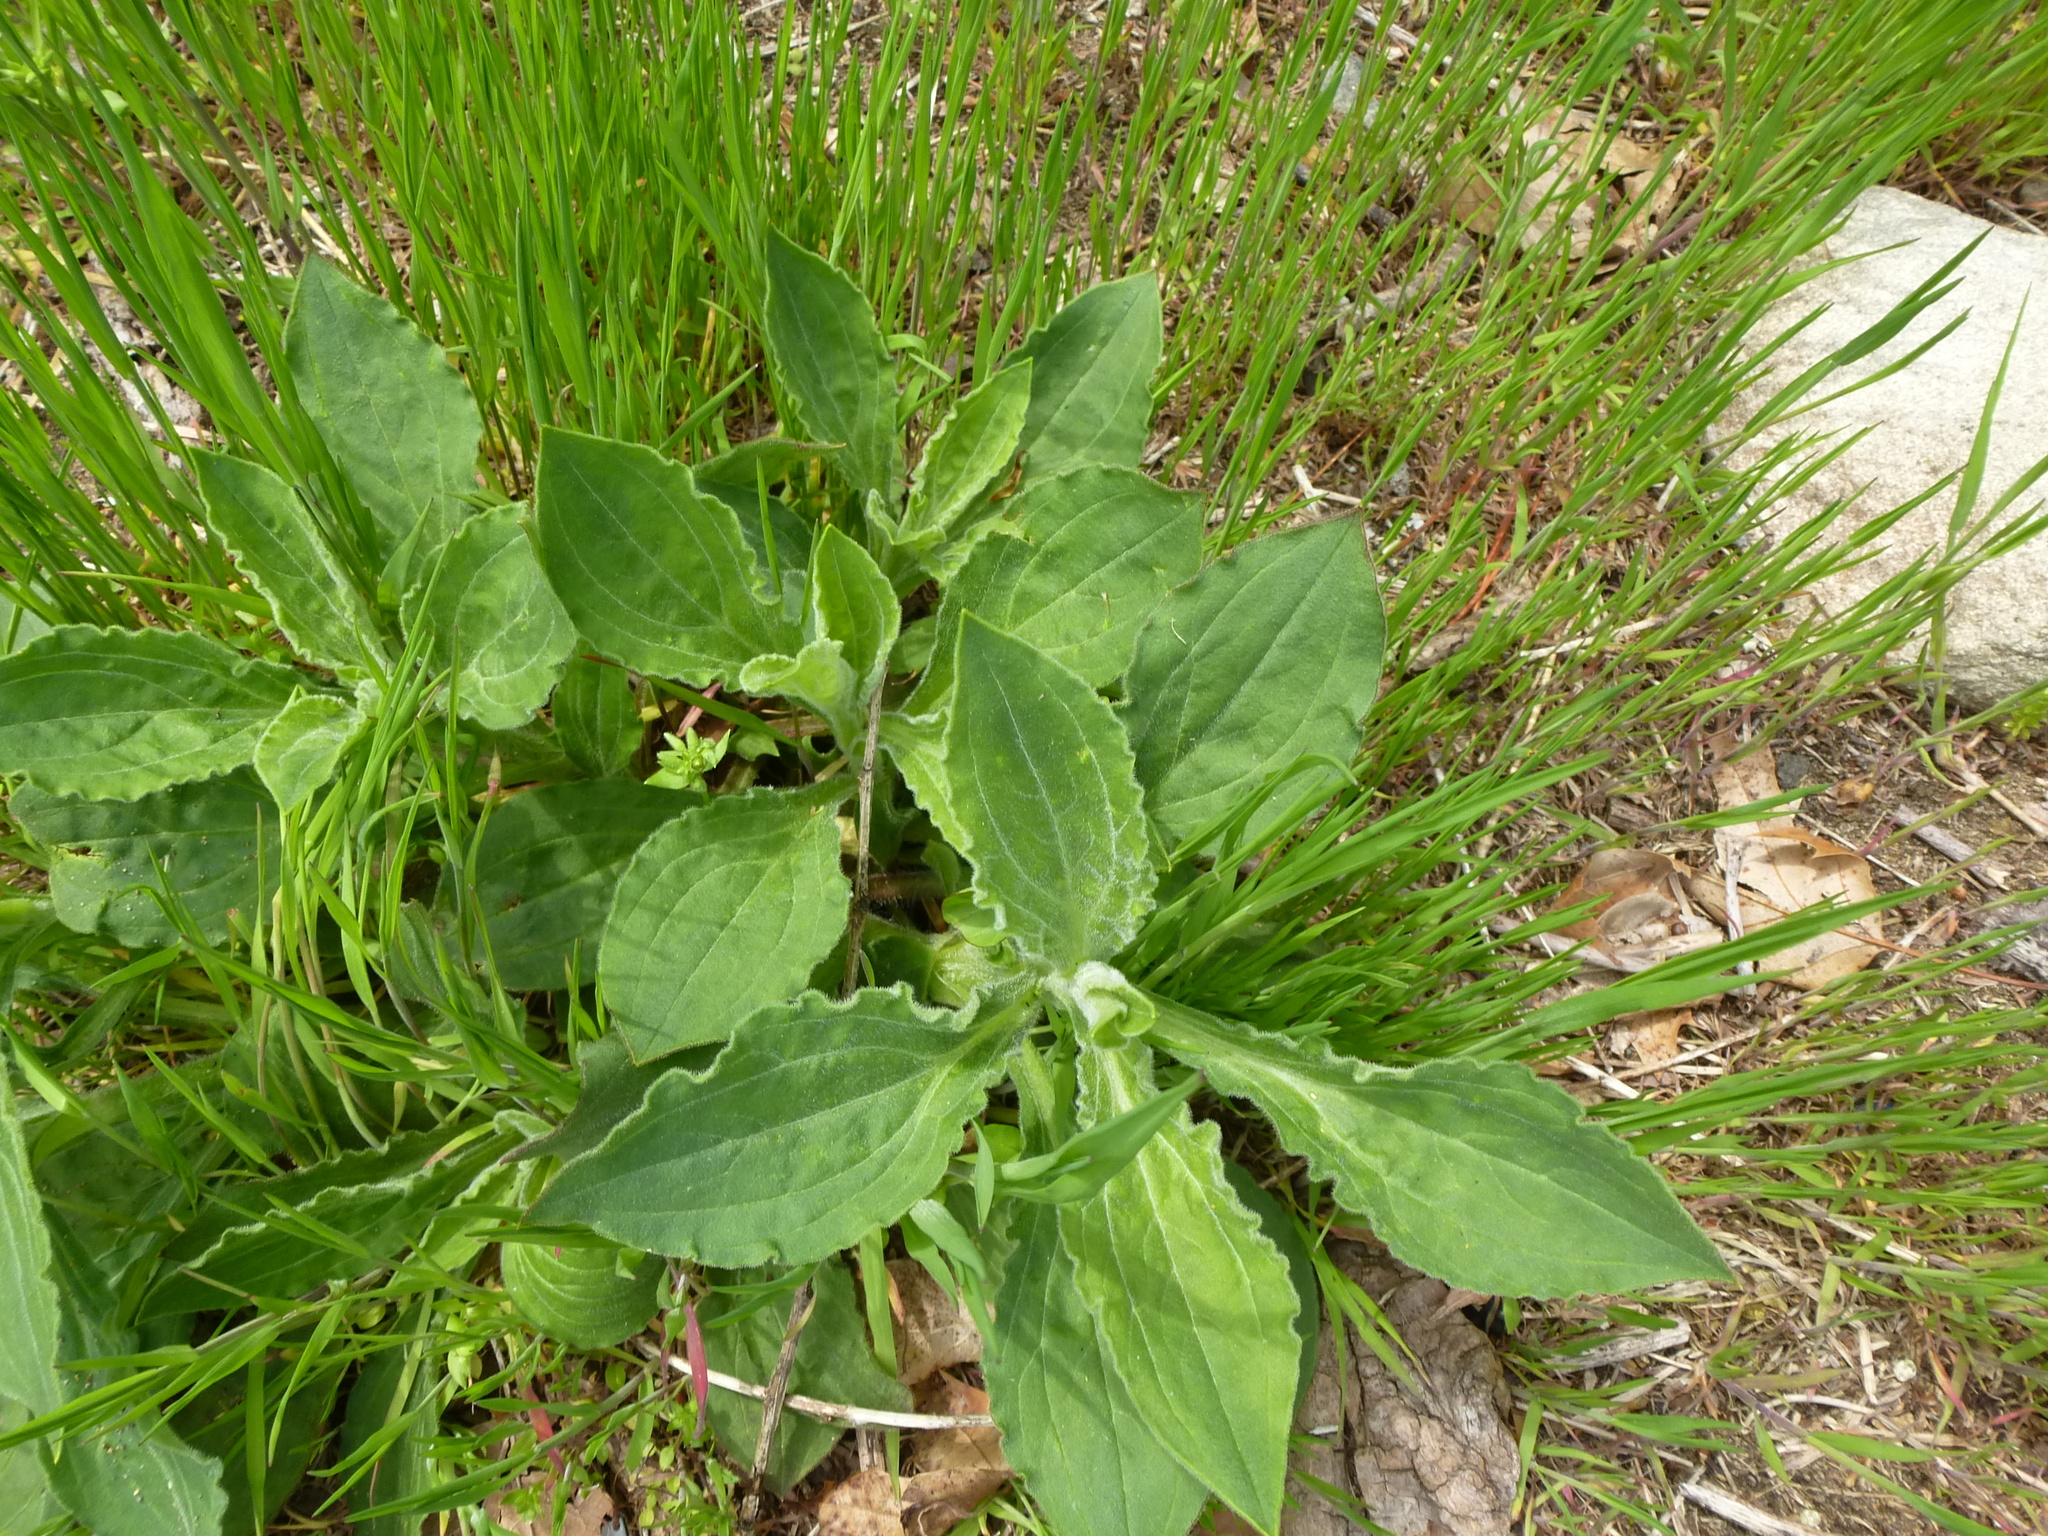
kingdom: Plantae
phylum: Tracheophyta
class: Magnoliopsida
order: Caryophyllales
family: Caryophyllaceae
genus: Silene
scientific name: Silene latifolia
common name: White campion
